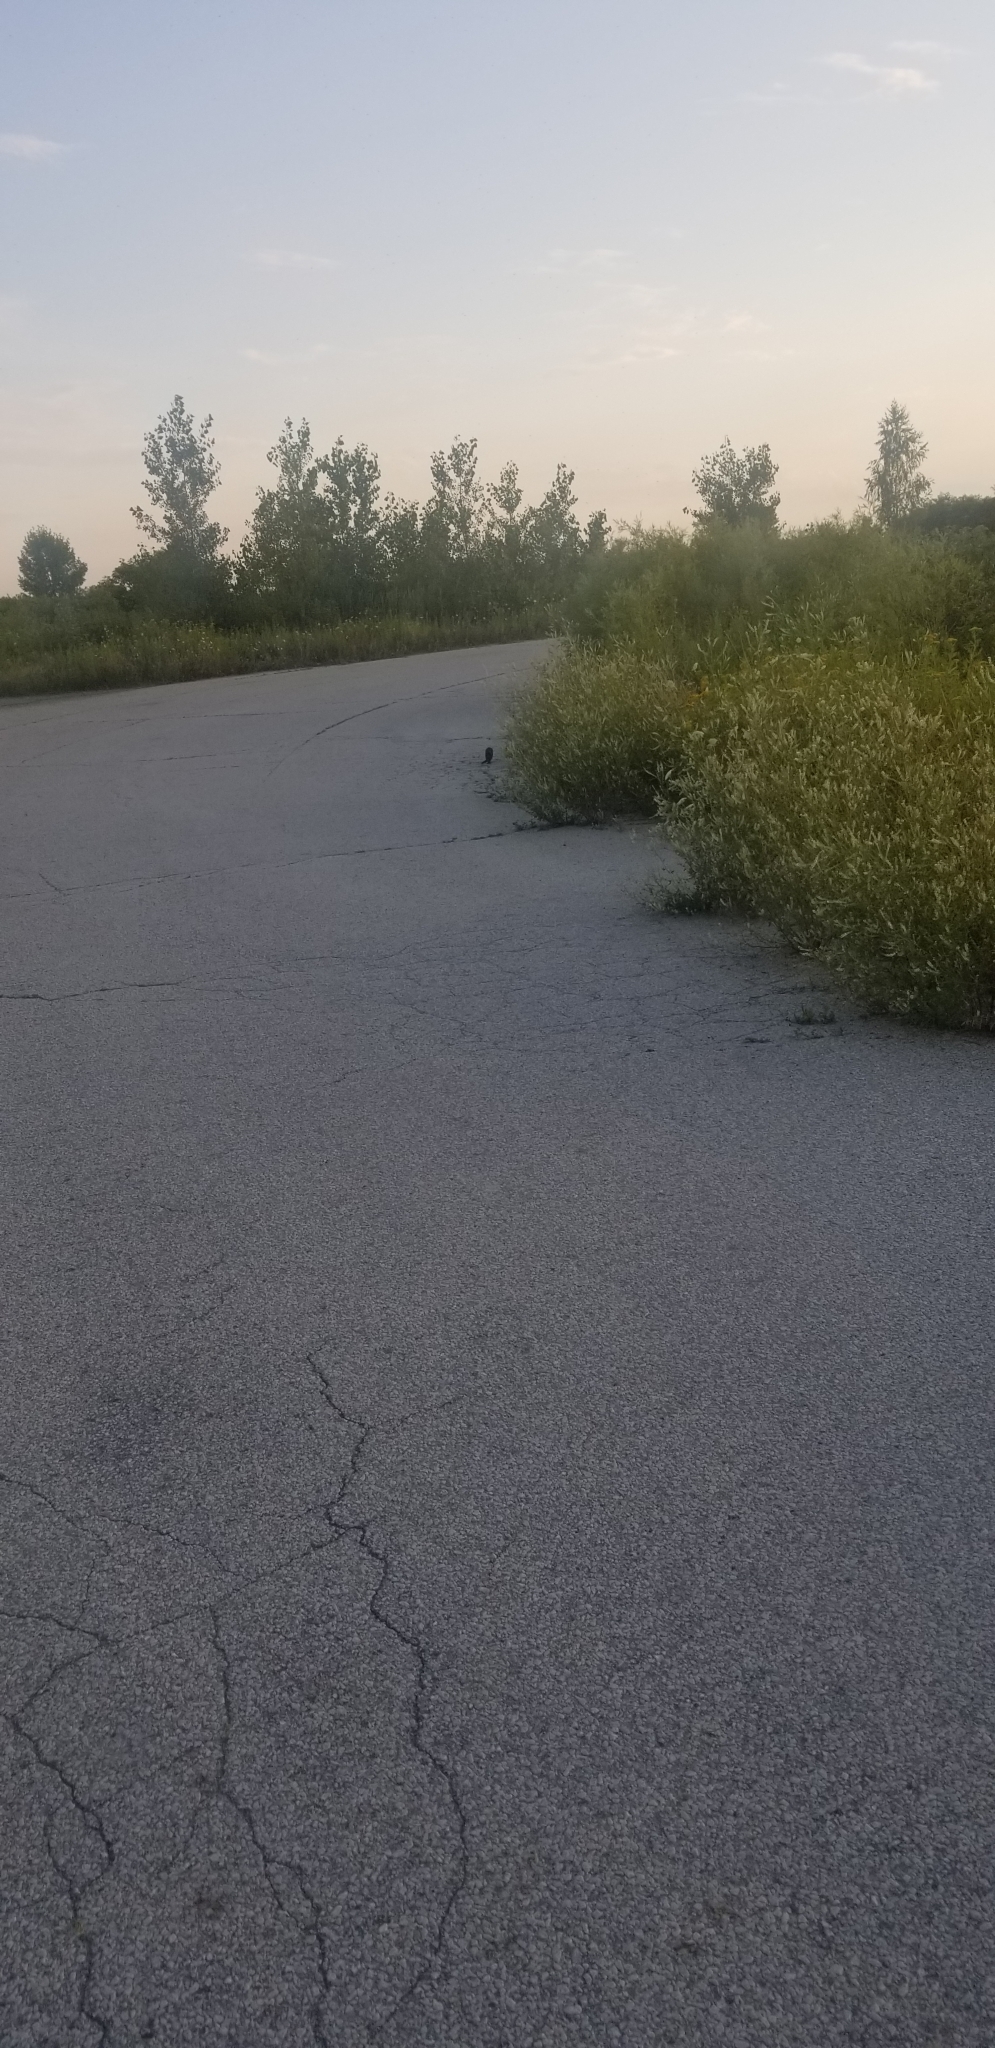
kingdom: Animalia
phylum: Chordata
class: Mammalia
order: Carnivora
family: Mustelidae
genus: Mustela
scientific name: Mustela
